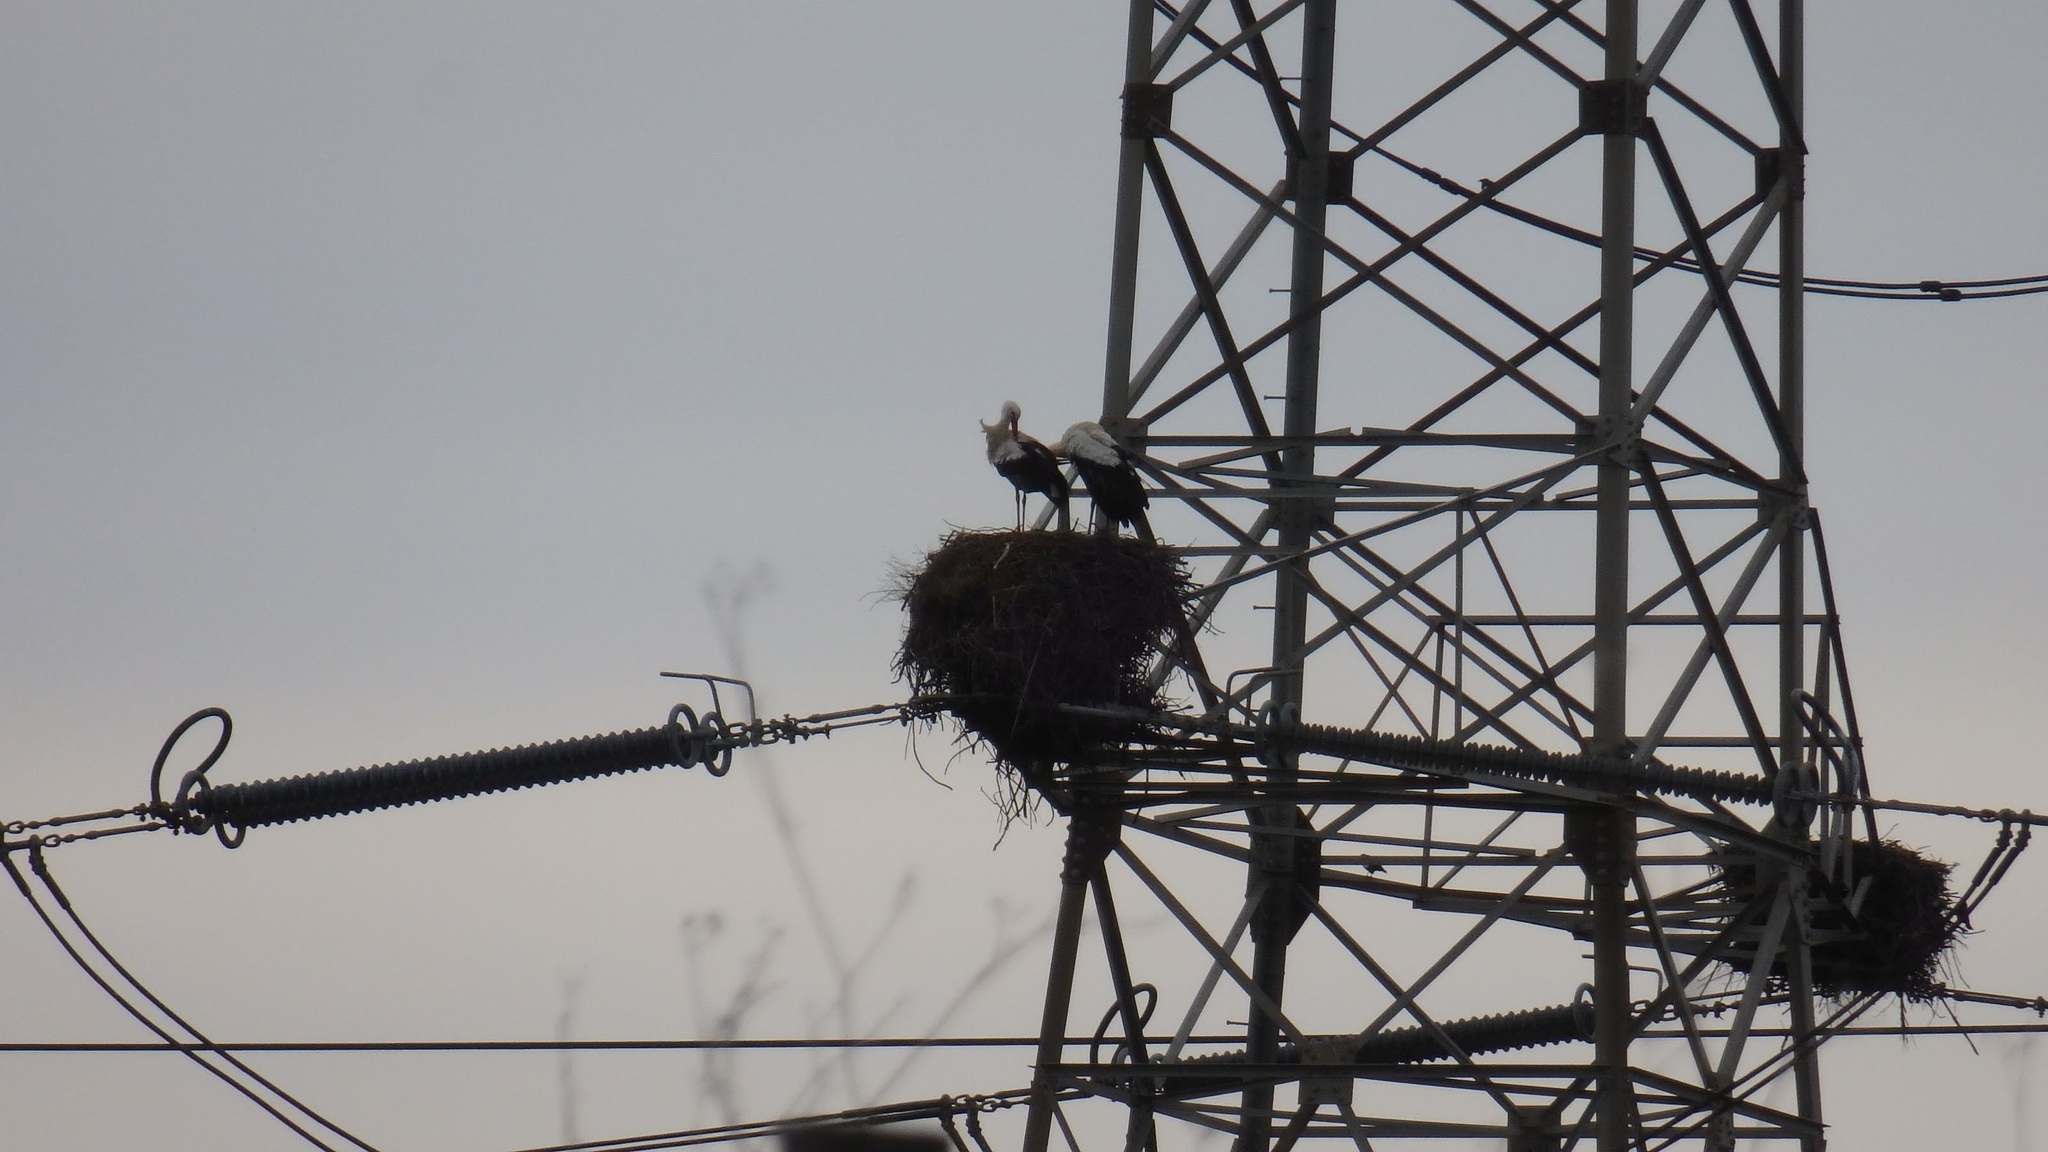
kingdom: Animalia
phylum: Chordata
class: Aves
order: Ciconiiformes
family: Ciconiidae
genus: Ciconia
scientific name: Ciconia ciconia
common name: White stork
